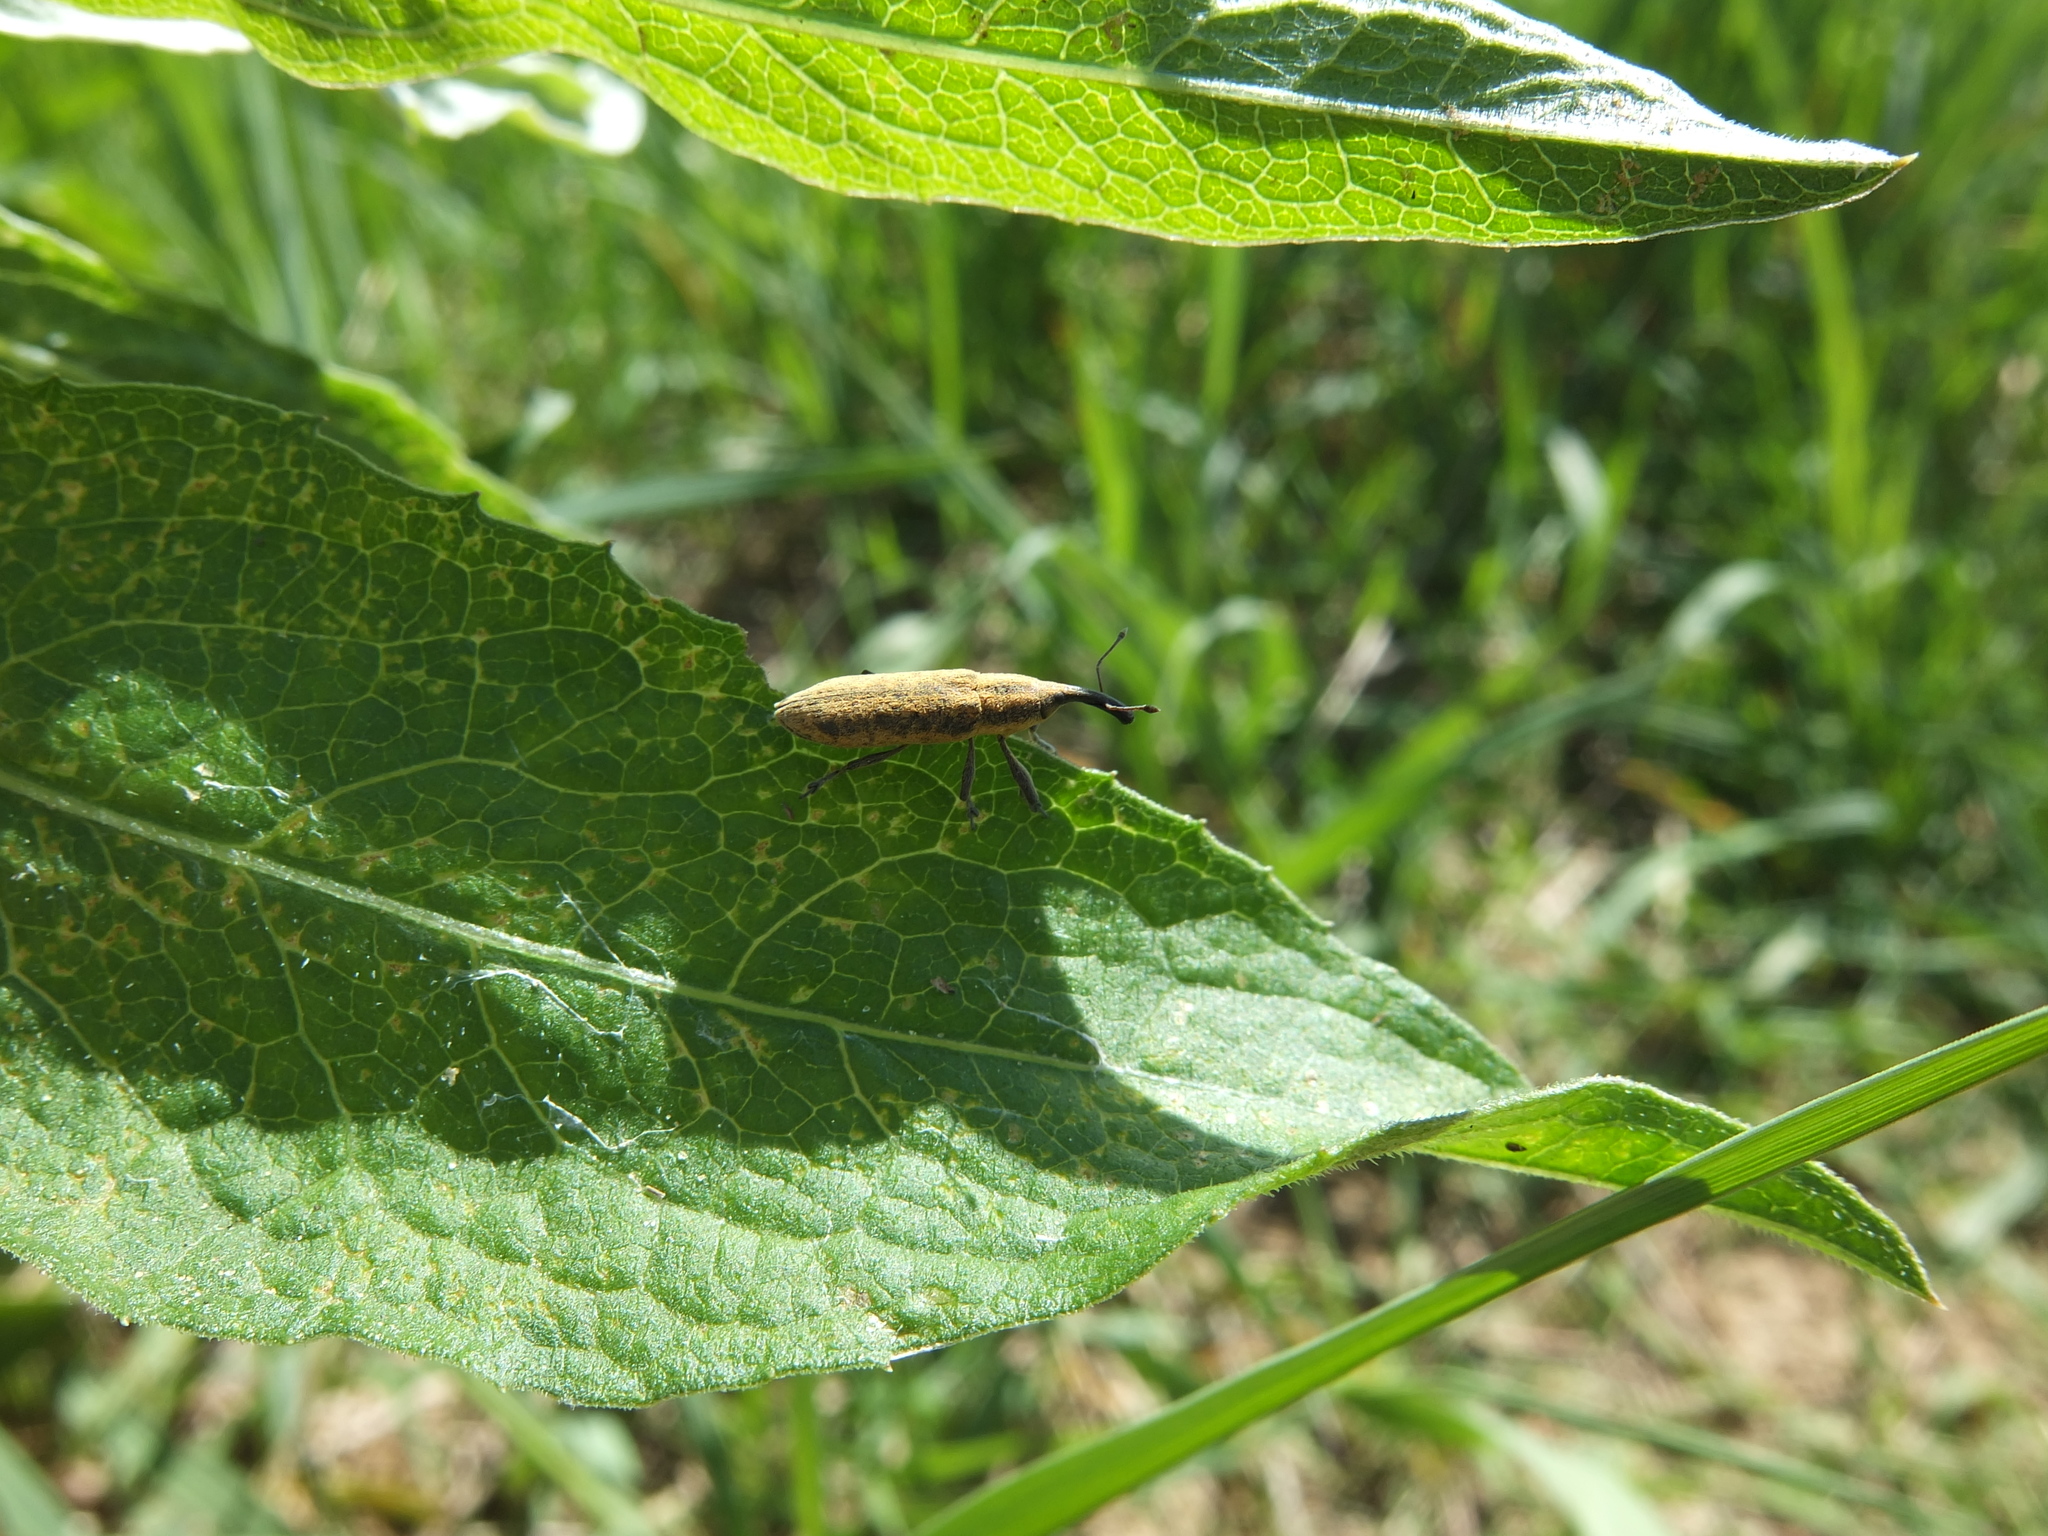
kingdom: Animalia
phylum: Arthropoda
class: Insecta
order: Coleoptera
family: Curculionidae
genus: Lixus
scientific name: Lixus fasciculatus
